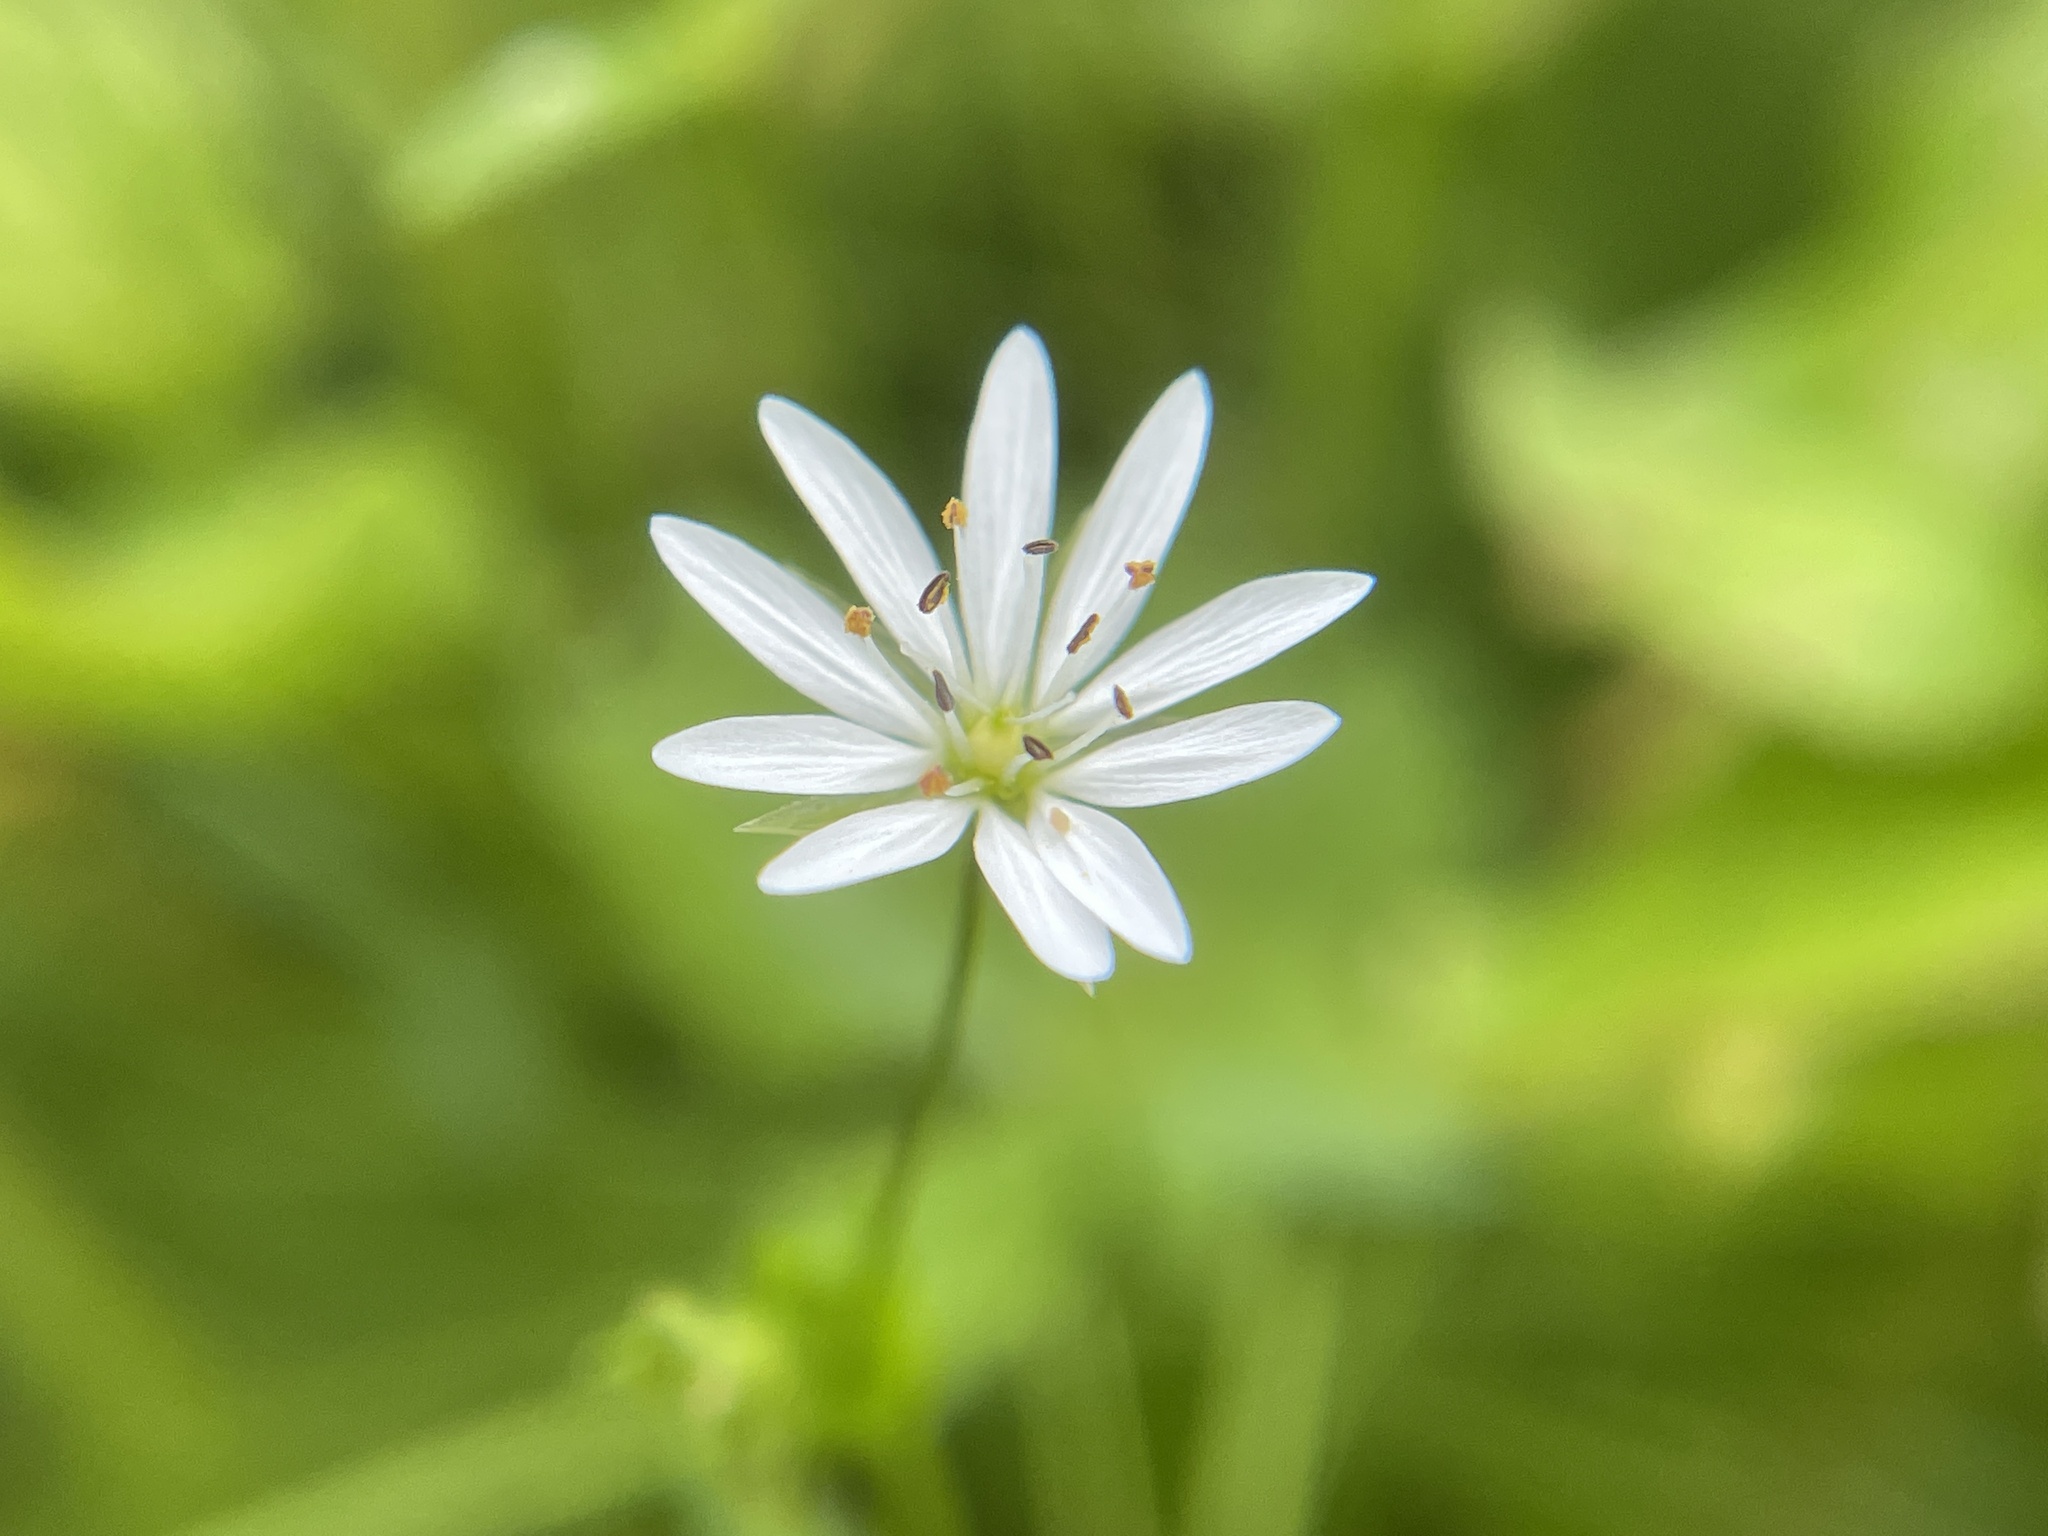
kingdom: Plantae
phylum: Tracheophyta
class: Magnoliopsida
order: Caryophyllales
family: Caryophyllaceae
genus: Stellaria
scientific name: Stellaria graminea
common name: Grass-like starwort
